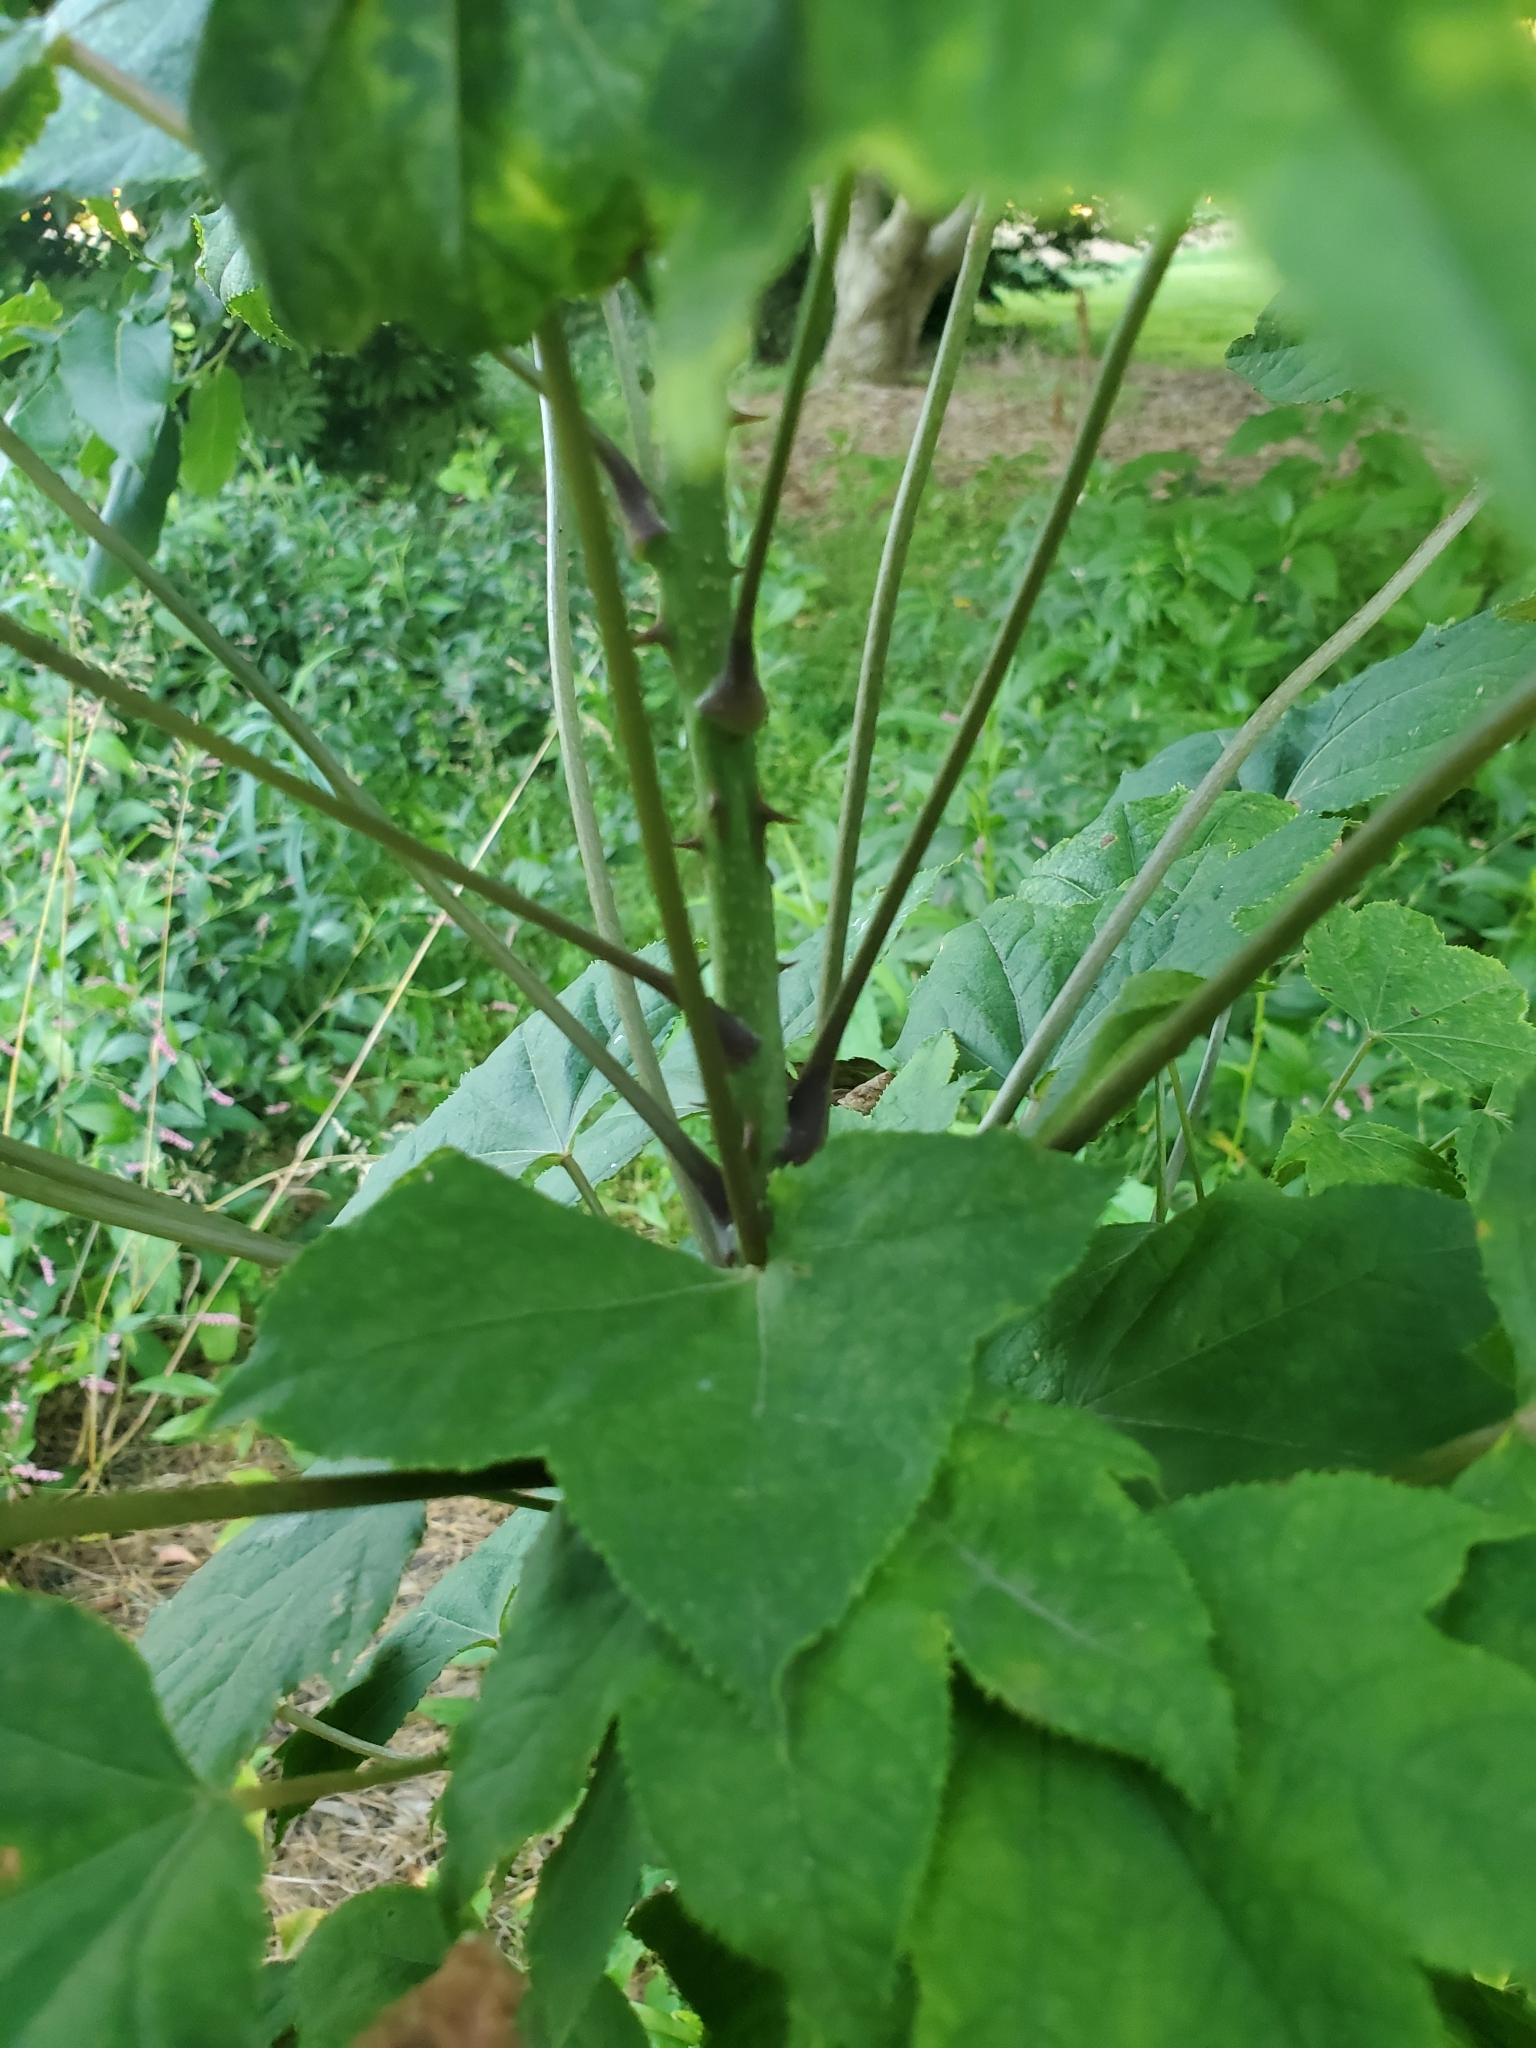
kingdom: Plantae
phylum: Tracheophyta
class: Magnoliopsida
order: Apiales
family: Araliaceae
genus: Kalopanax
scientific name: Kalopanax septemlobus
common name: Castor aralia
